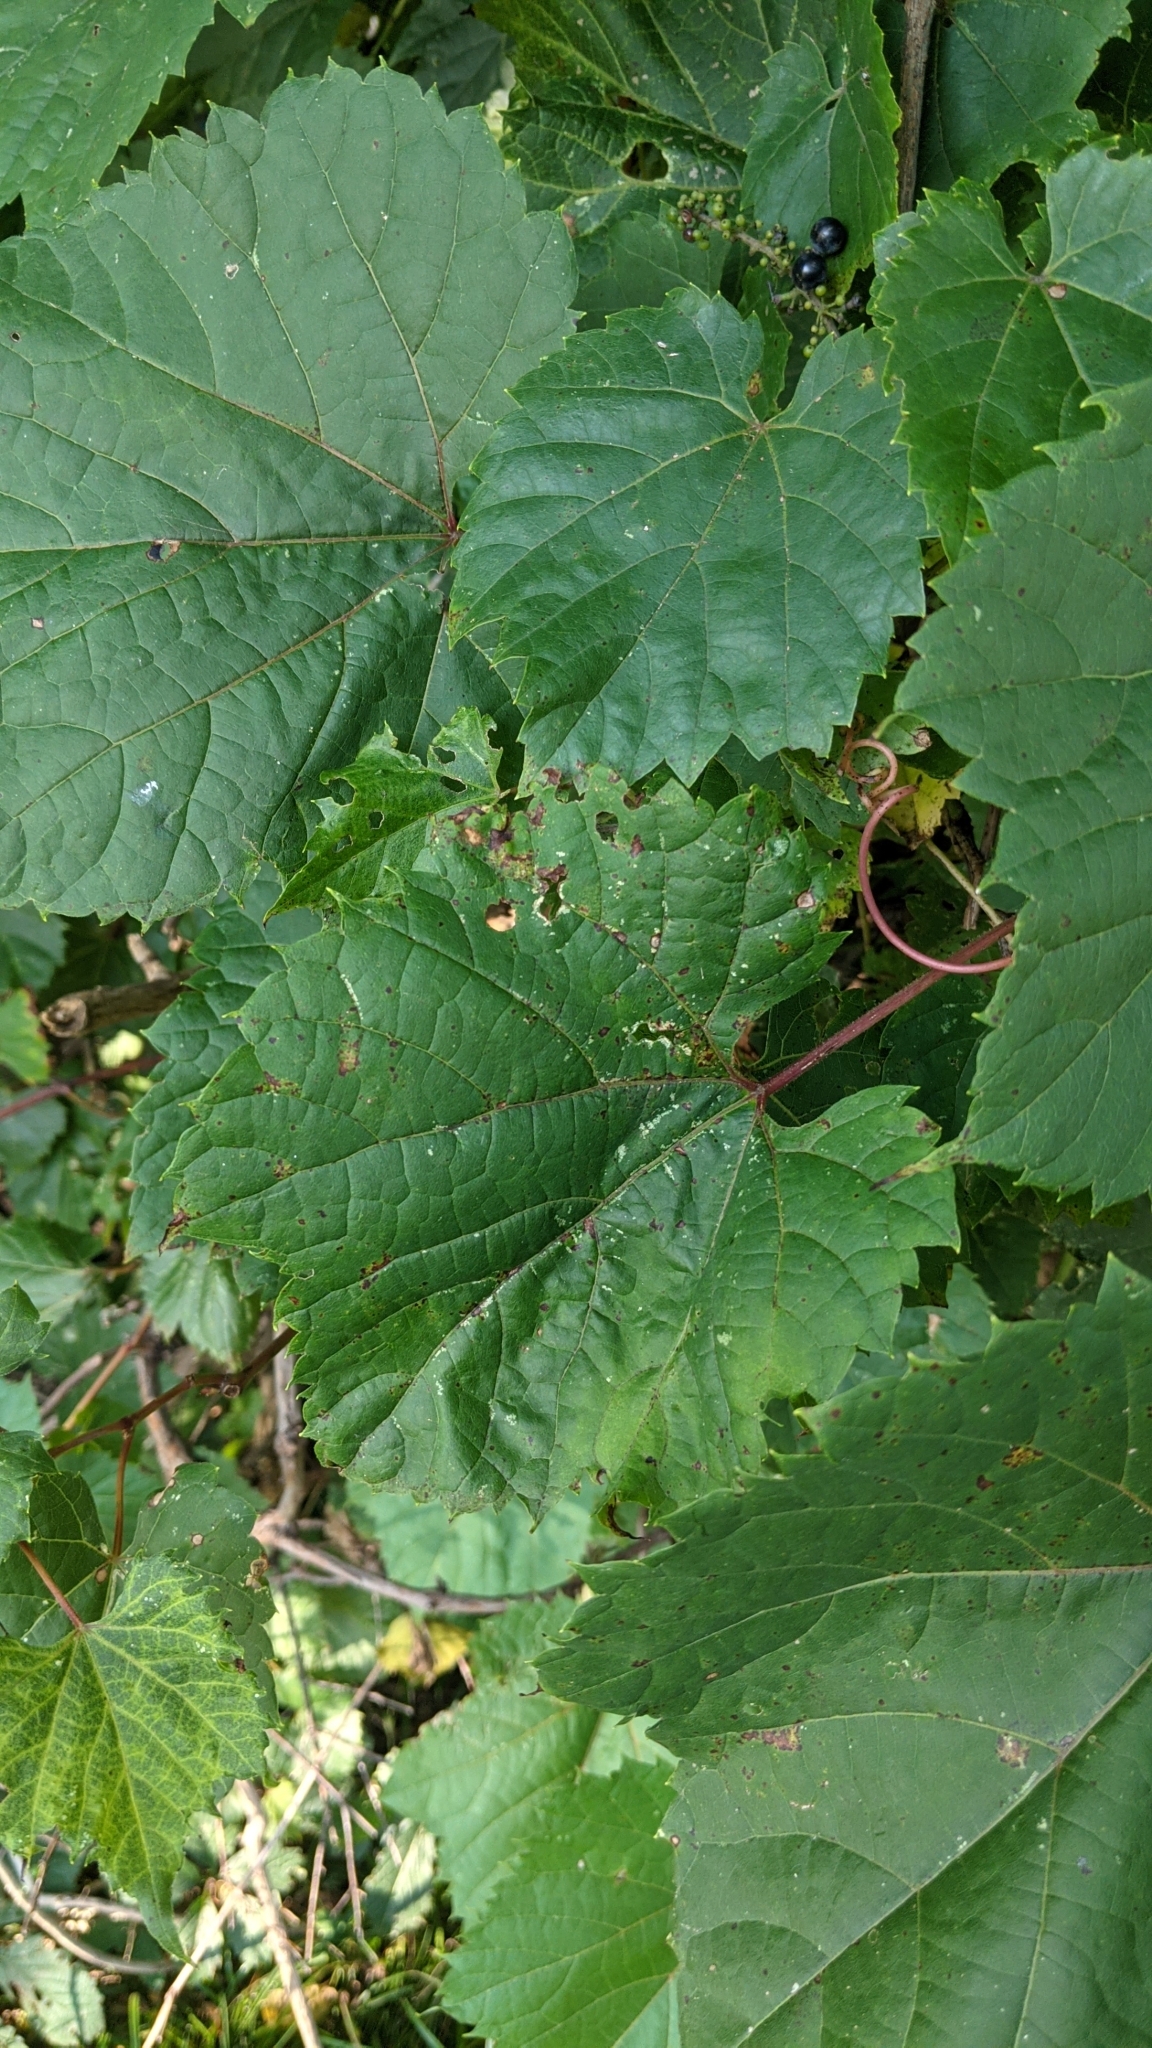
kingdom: Plantae
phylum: Tracheophyta
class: Magnoliopsida
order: Vitales
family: Vitaceae
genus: Vitis
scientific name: Vitis riparia
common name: Frost grape
